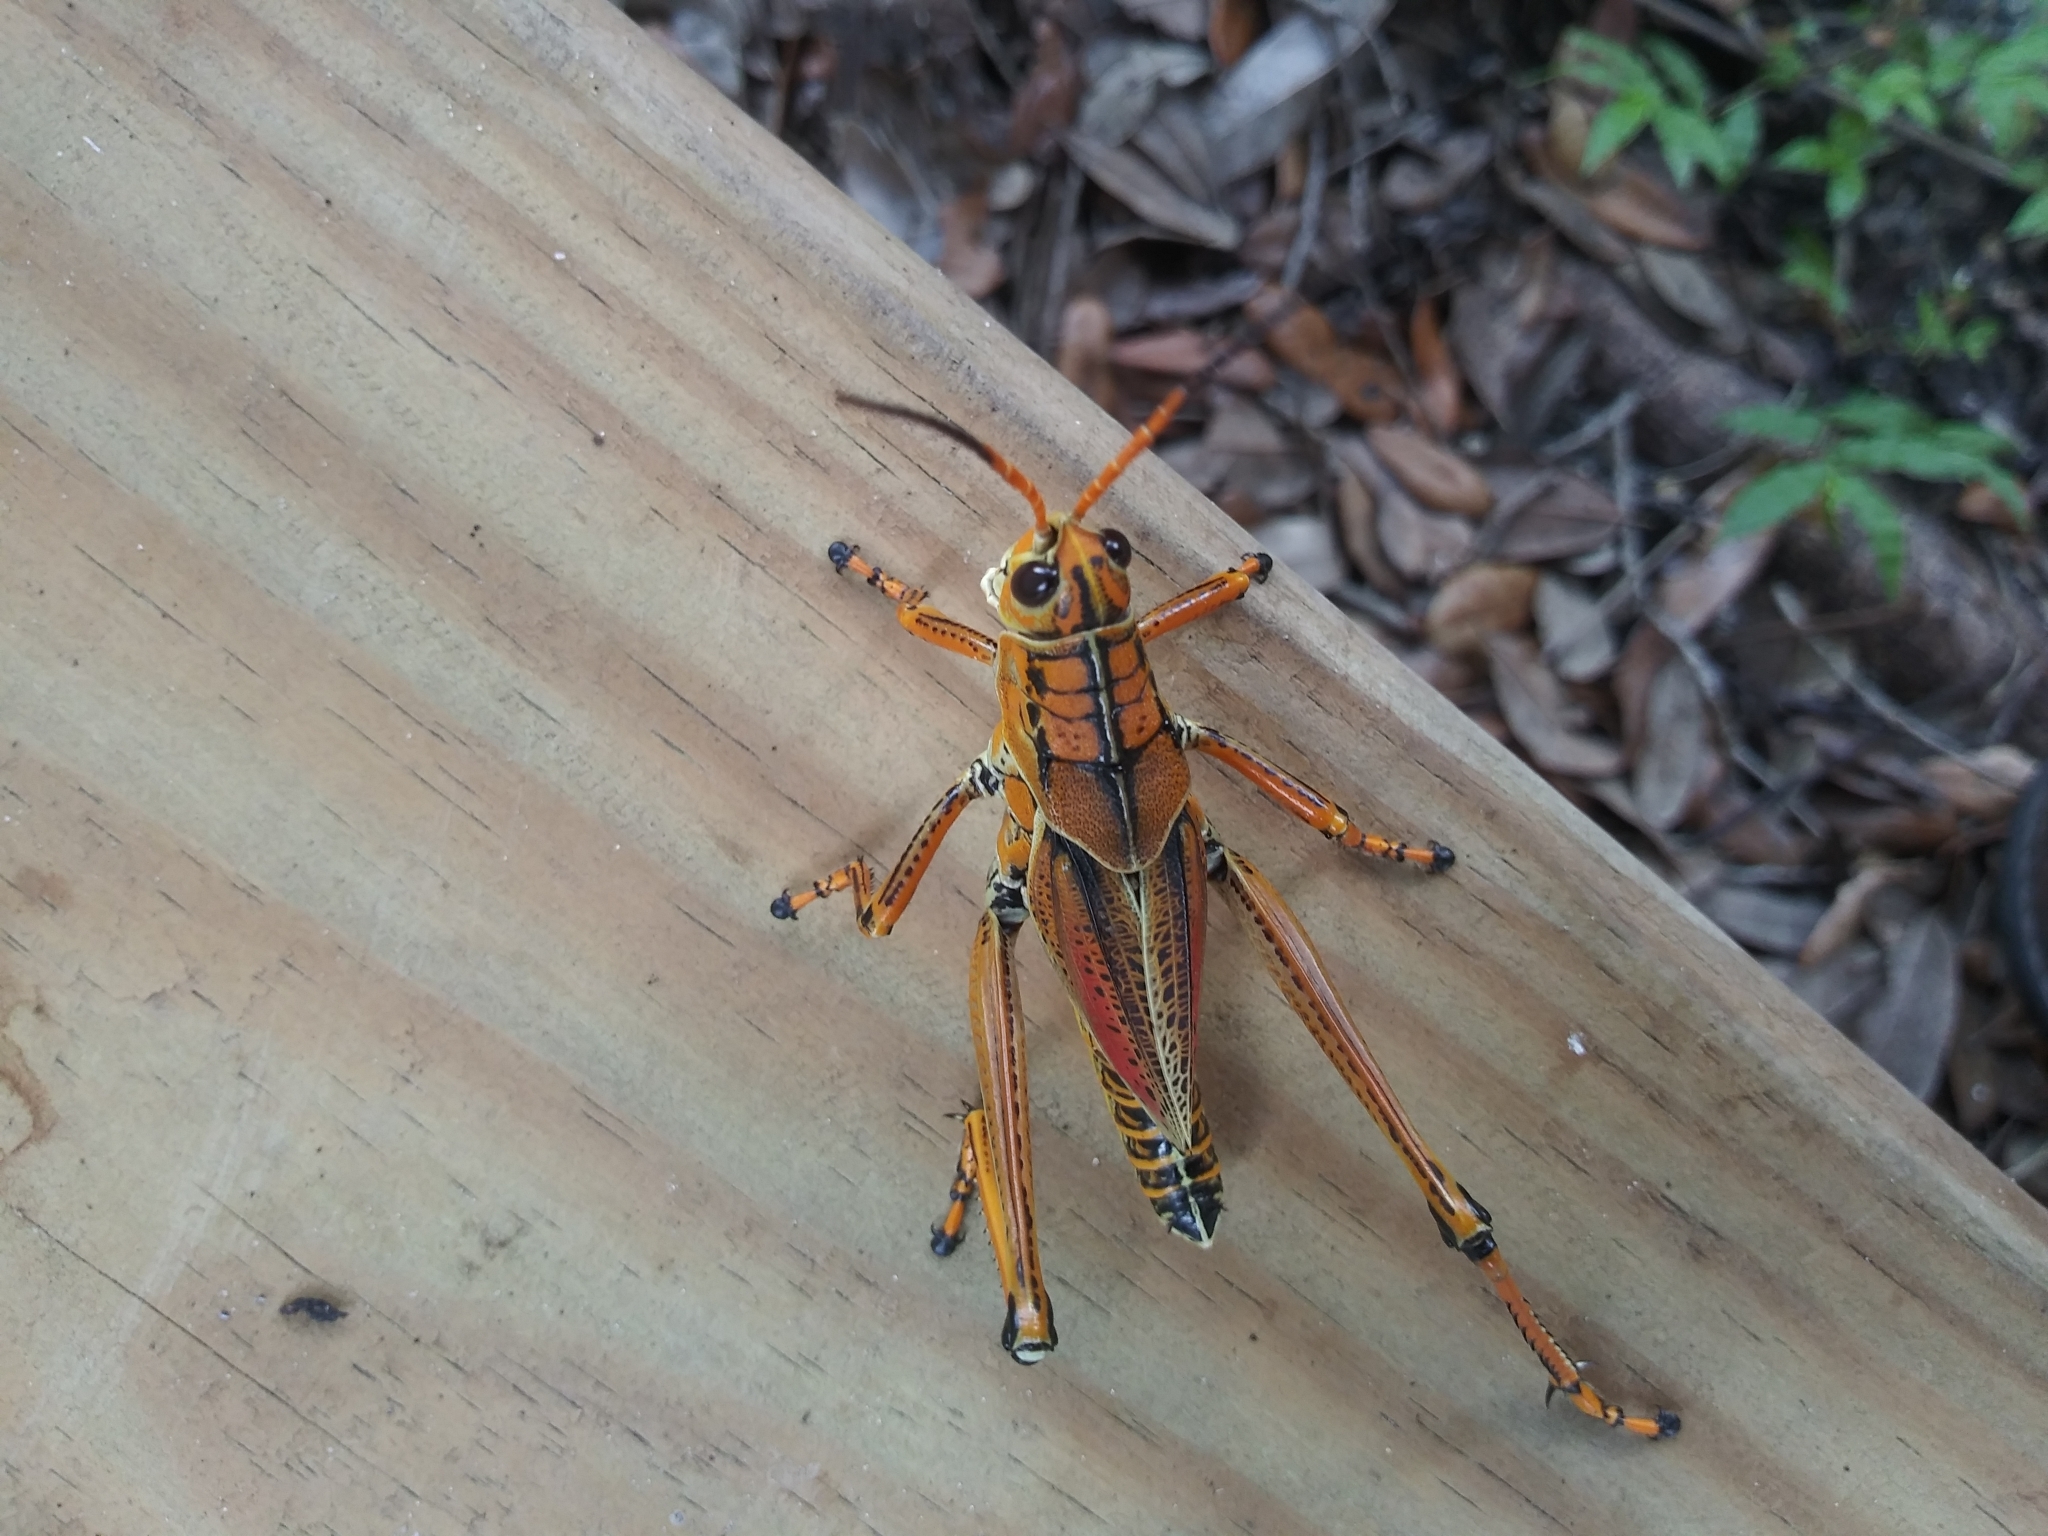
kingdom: Animalia
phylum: Arthropoda
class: Insecta
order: Orthoptera
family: Romaleidae
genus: Romalea
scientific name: Romalea microptera
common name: Eastern lubber grasshopper
